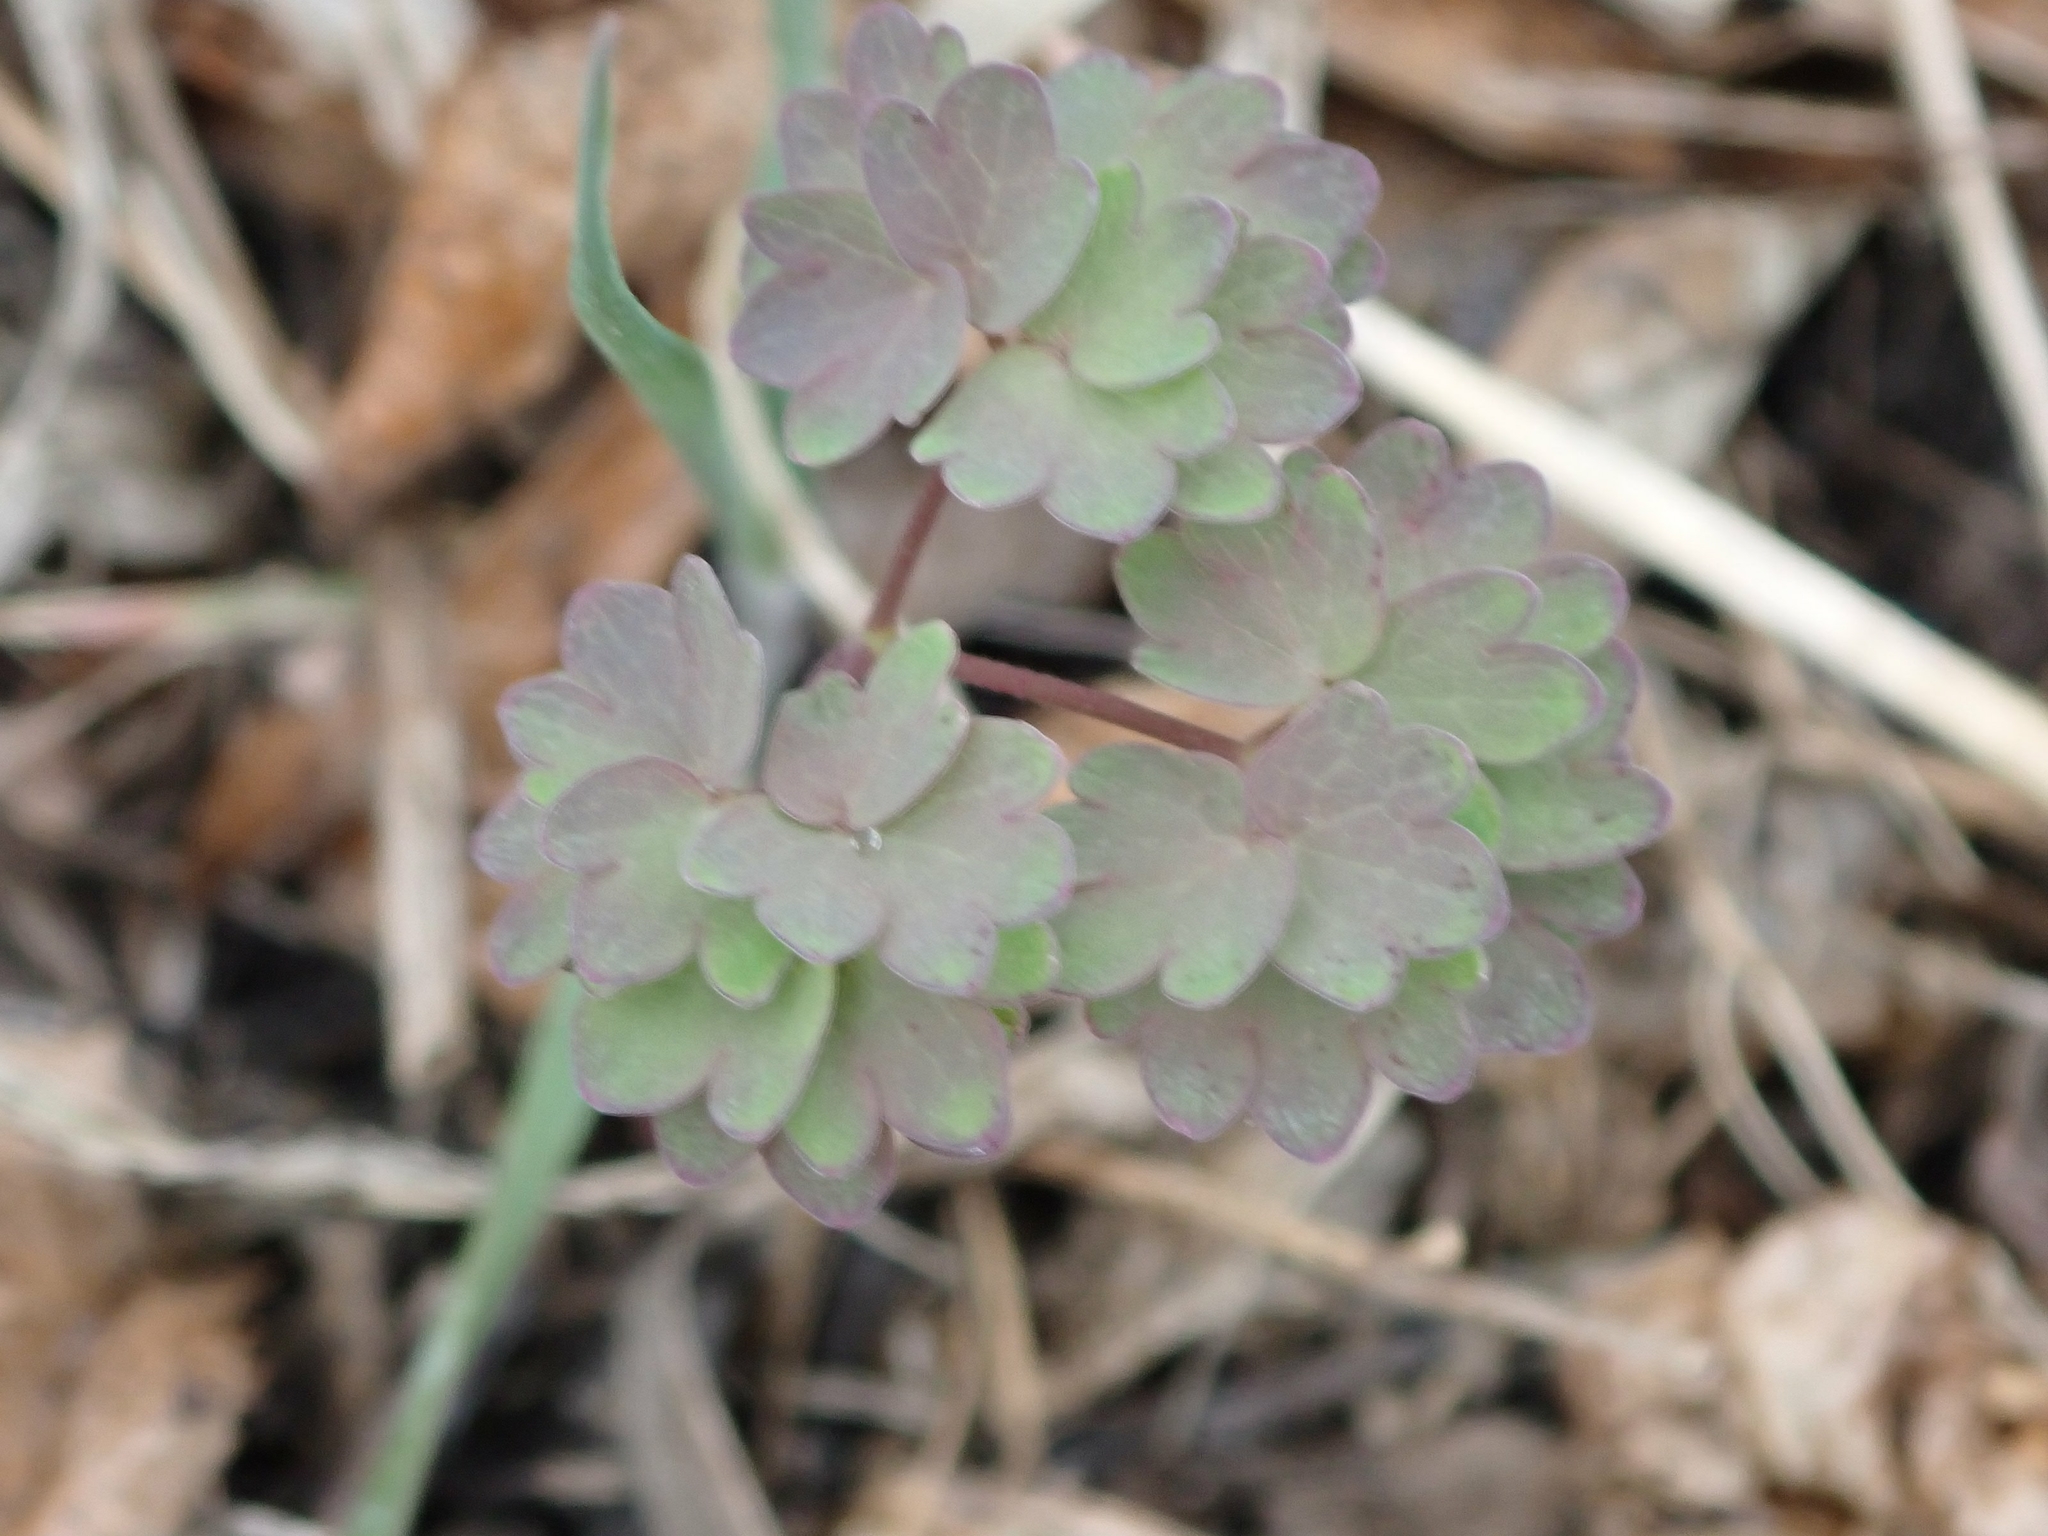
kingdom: Plantae
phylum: Tracheophyta
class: Magnoliopsida
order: Ranunculales
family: Ranunculaceae
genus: Thalictrum
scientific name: Thalictrum venulosum
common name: Early meadow-rue
